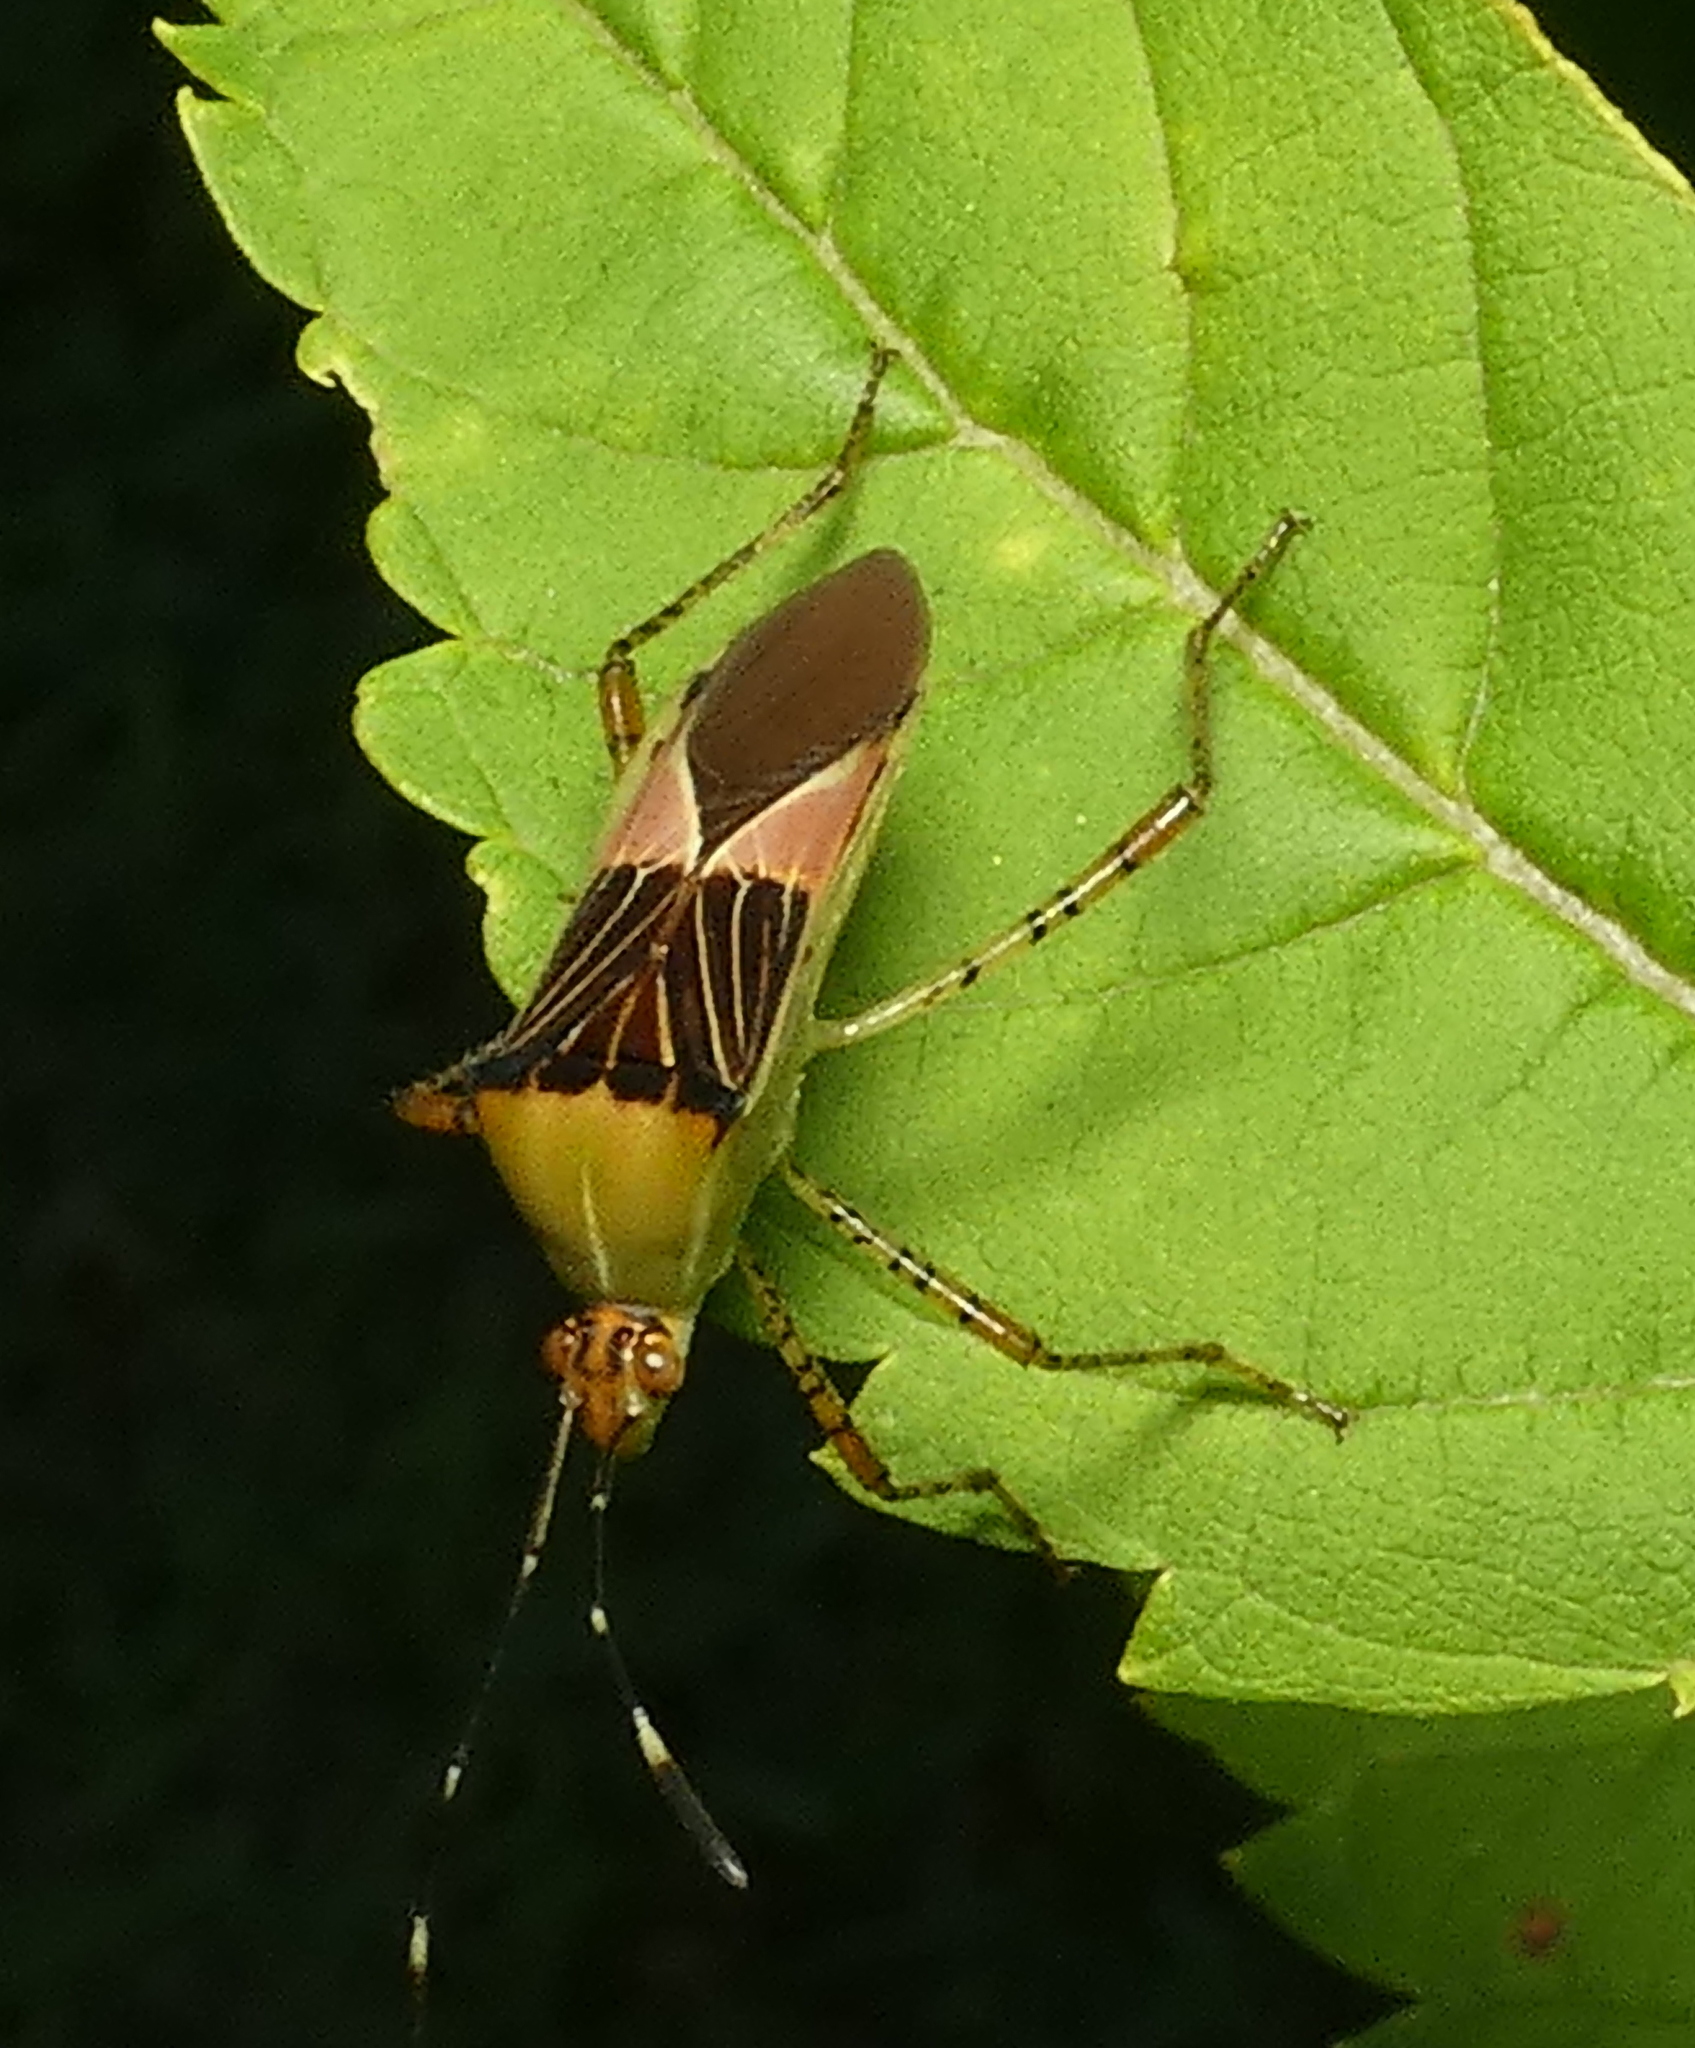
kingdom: Animalia
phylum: Arthropoda
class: Insecta
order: Hemiptera
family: Coreidae
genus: Hypselonotus
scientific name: Hypselonotus fulvus
